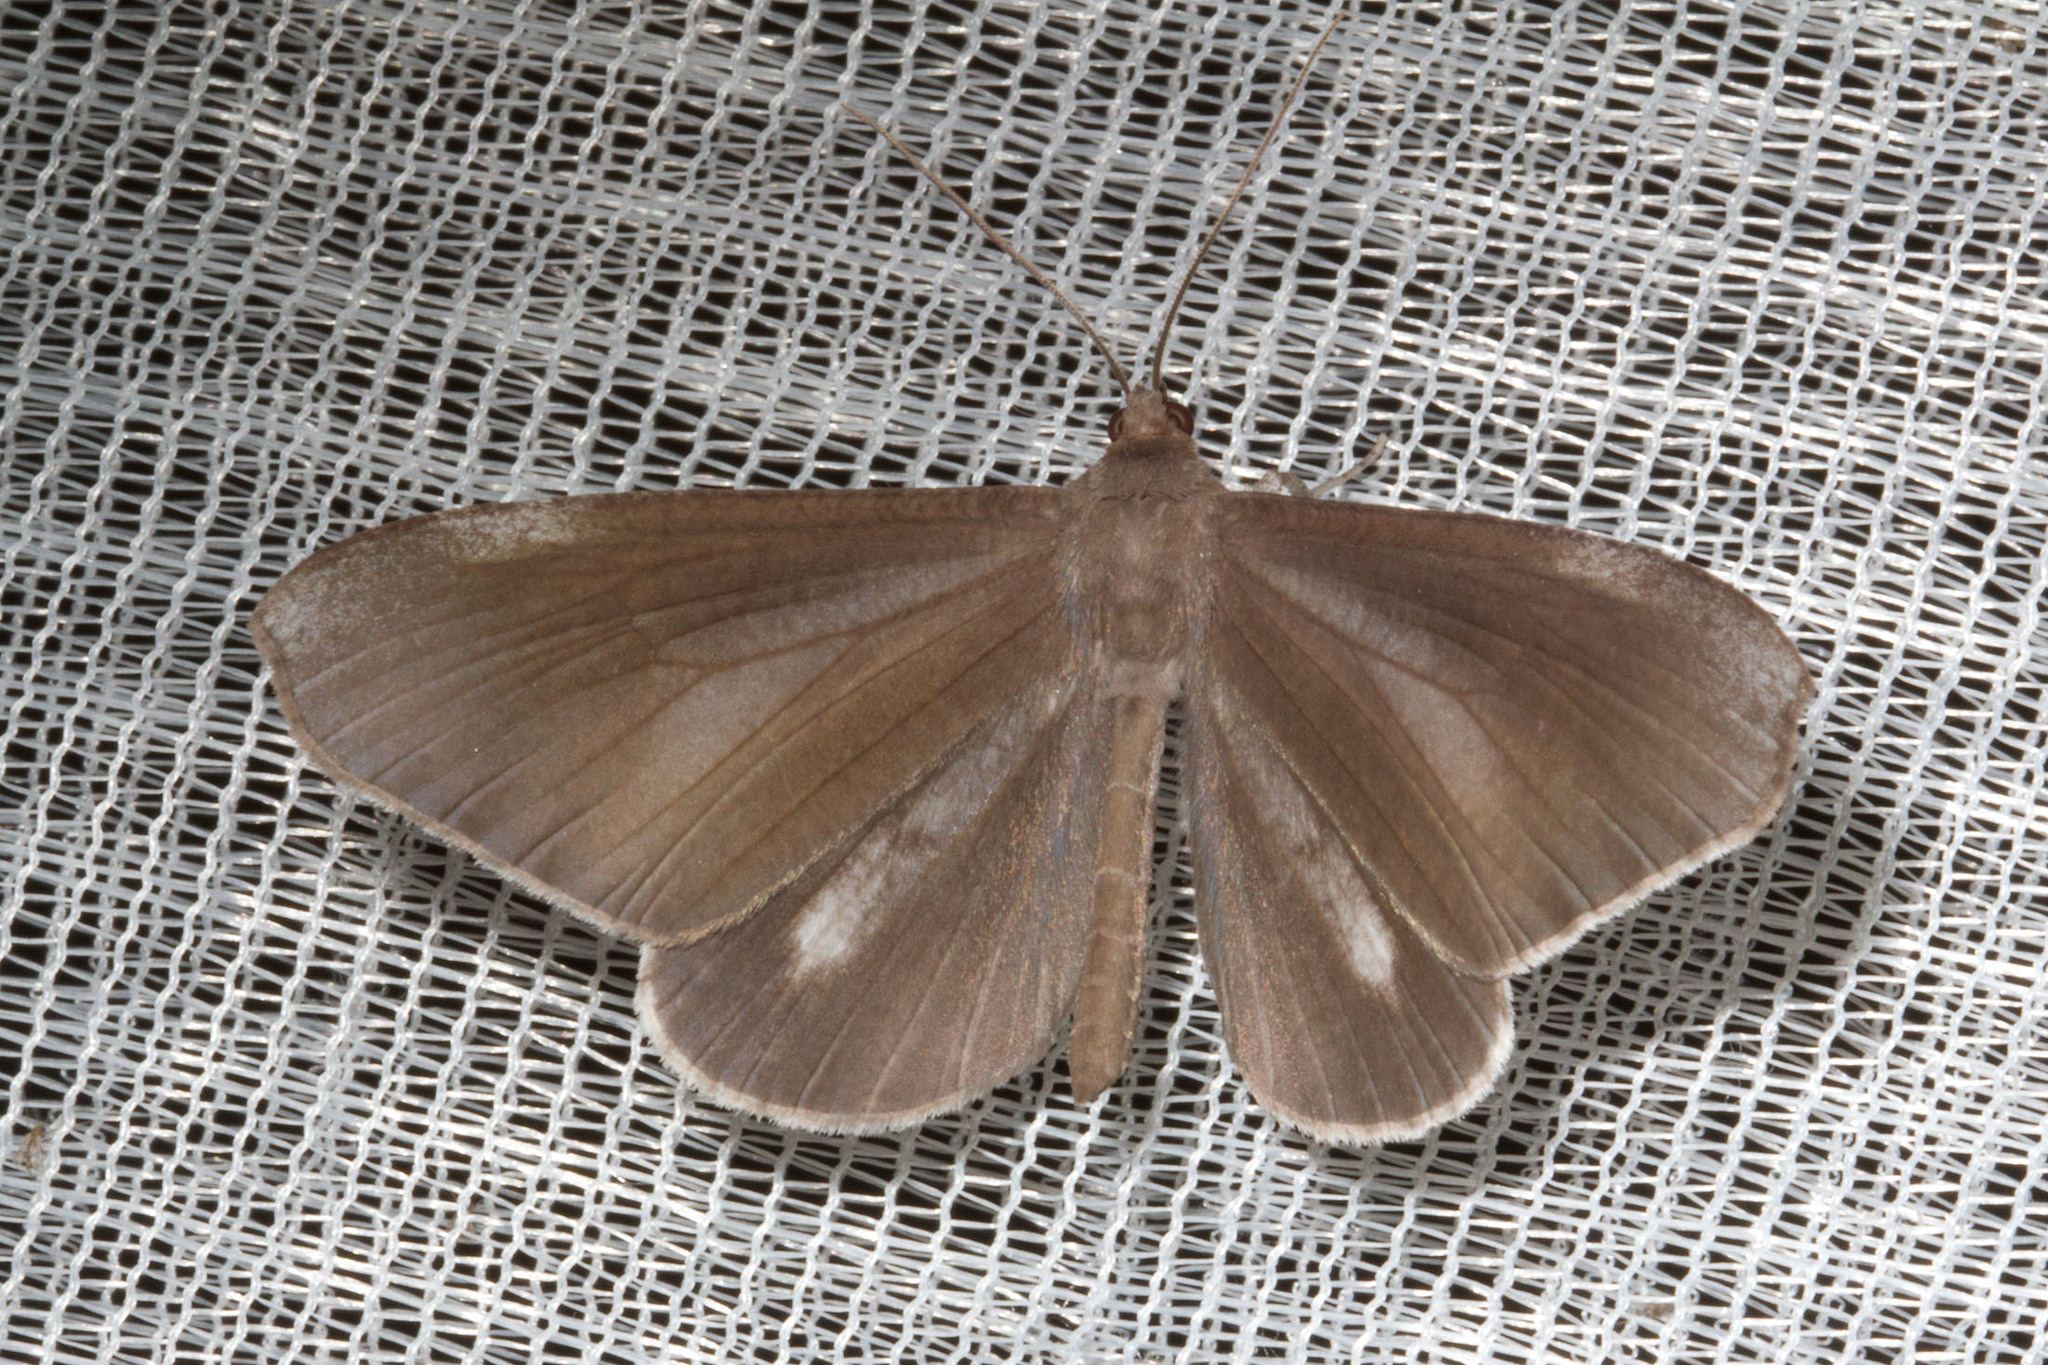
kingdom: Animalia
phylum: Arthropoda
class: Insecta
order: Lepidoptera
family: Hedylidae
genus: Macrosoma
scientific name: Macrosoma lucivittata
